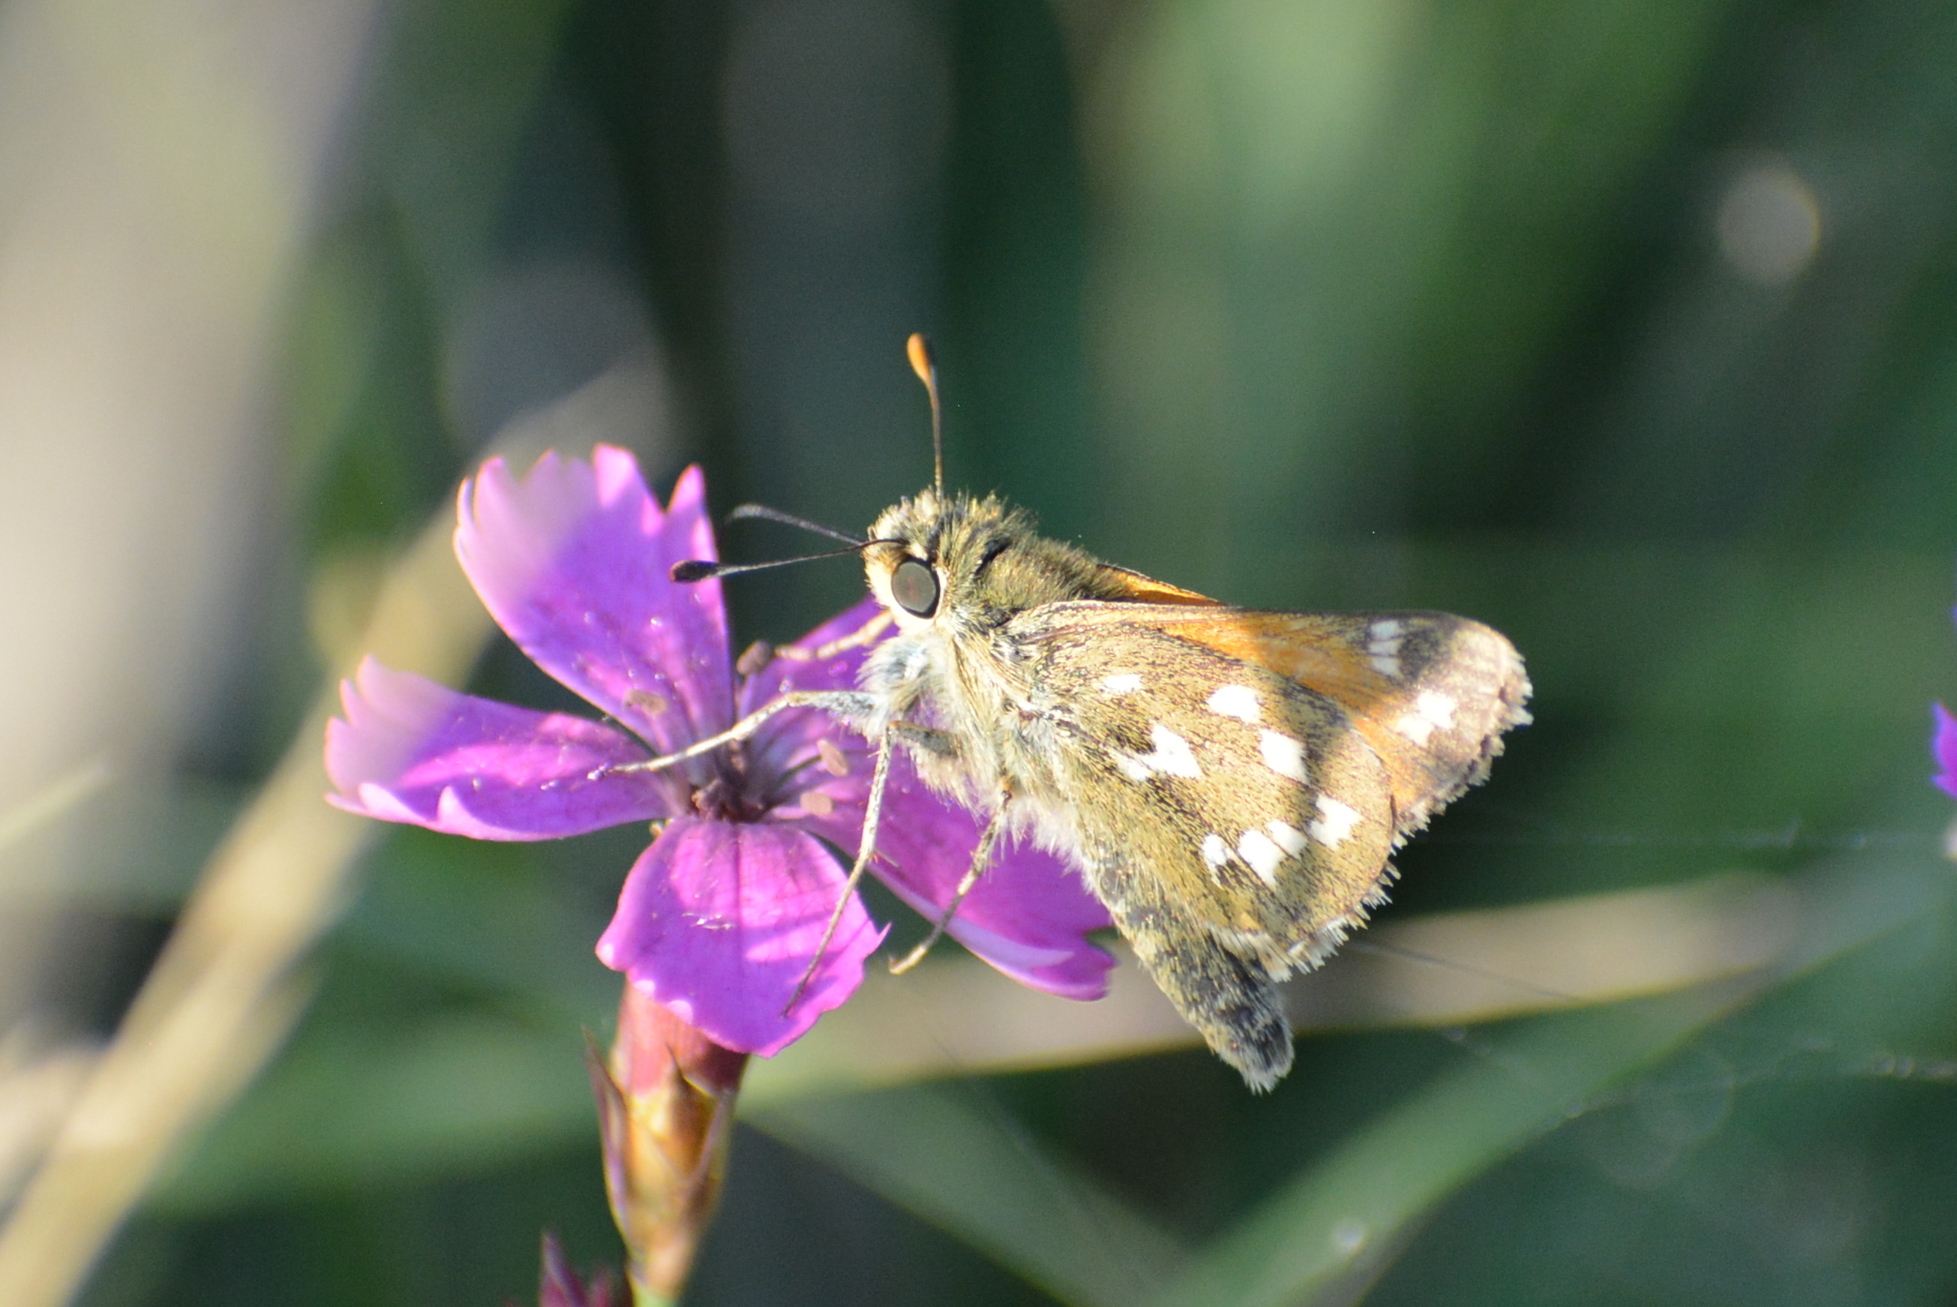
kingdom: Animalia
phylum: Arthropoda
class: Insecta
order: Lepidoptera
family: Hesperiidae
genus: Hesperia
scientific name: Hesperia comma
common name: Common branded skipper
